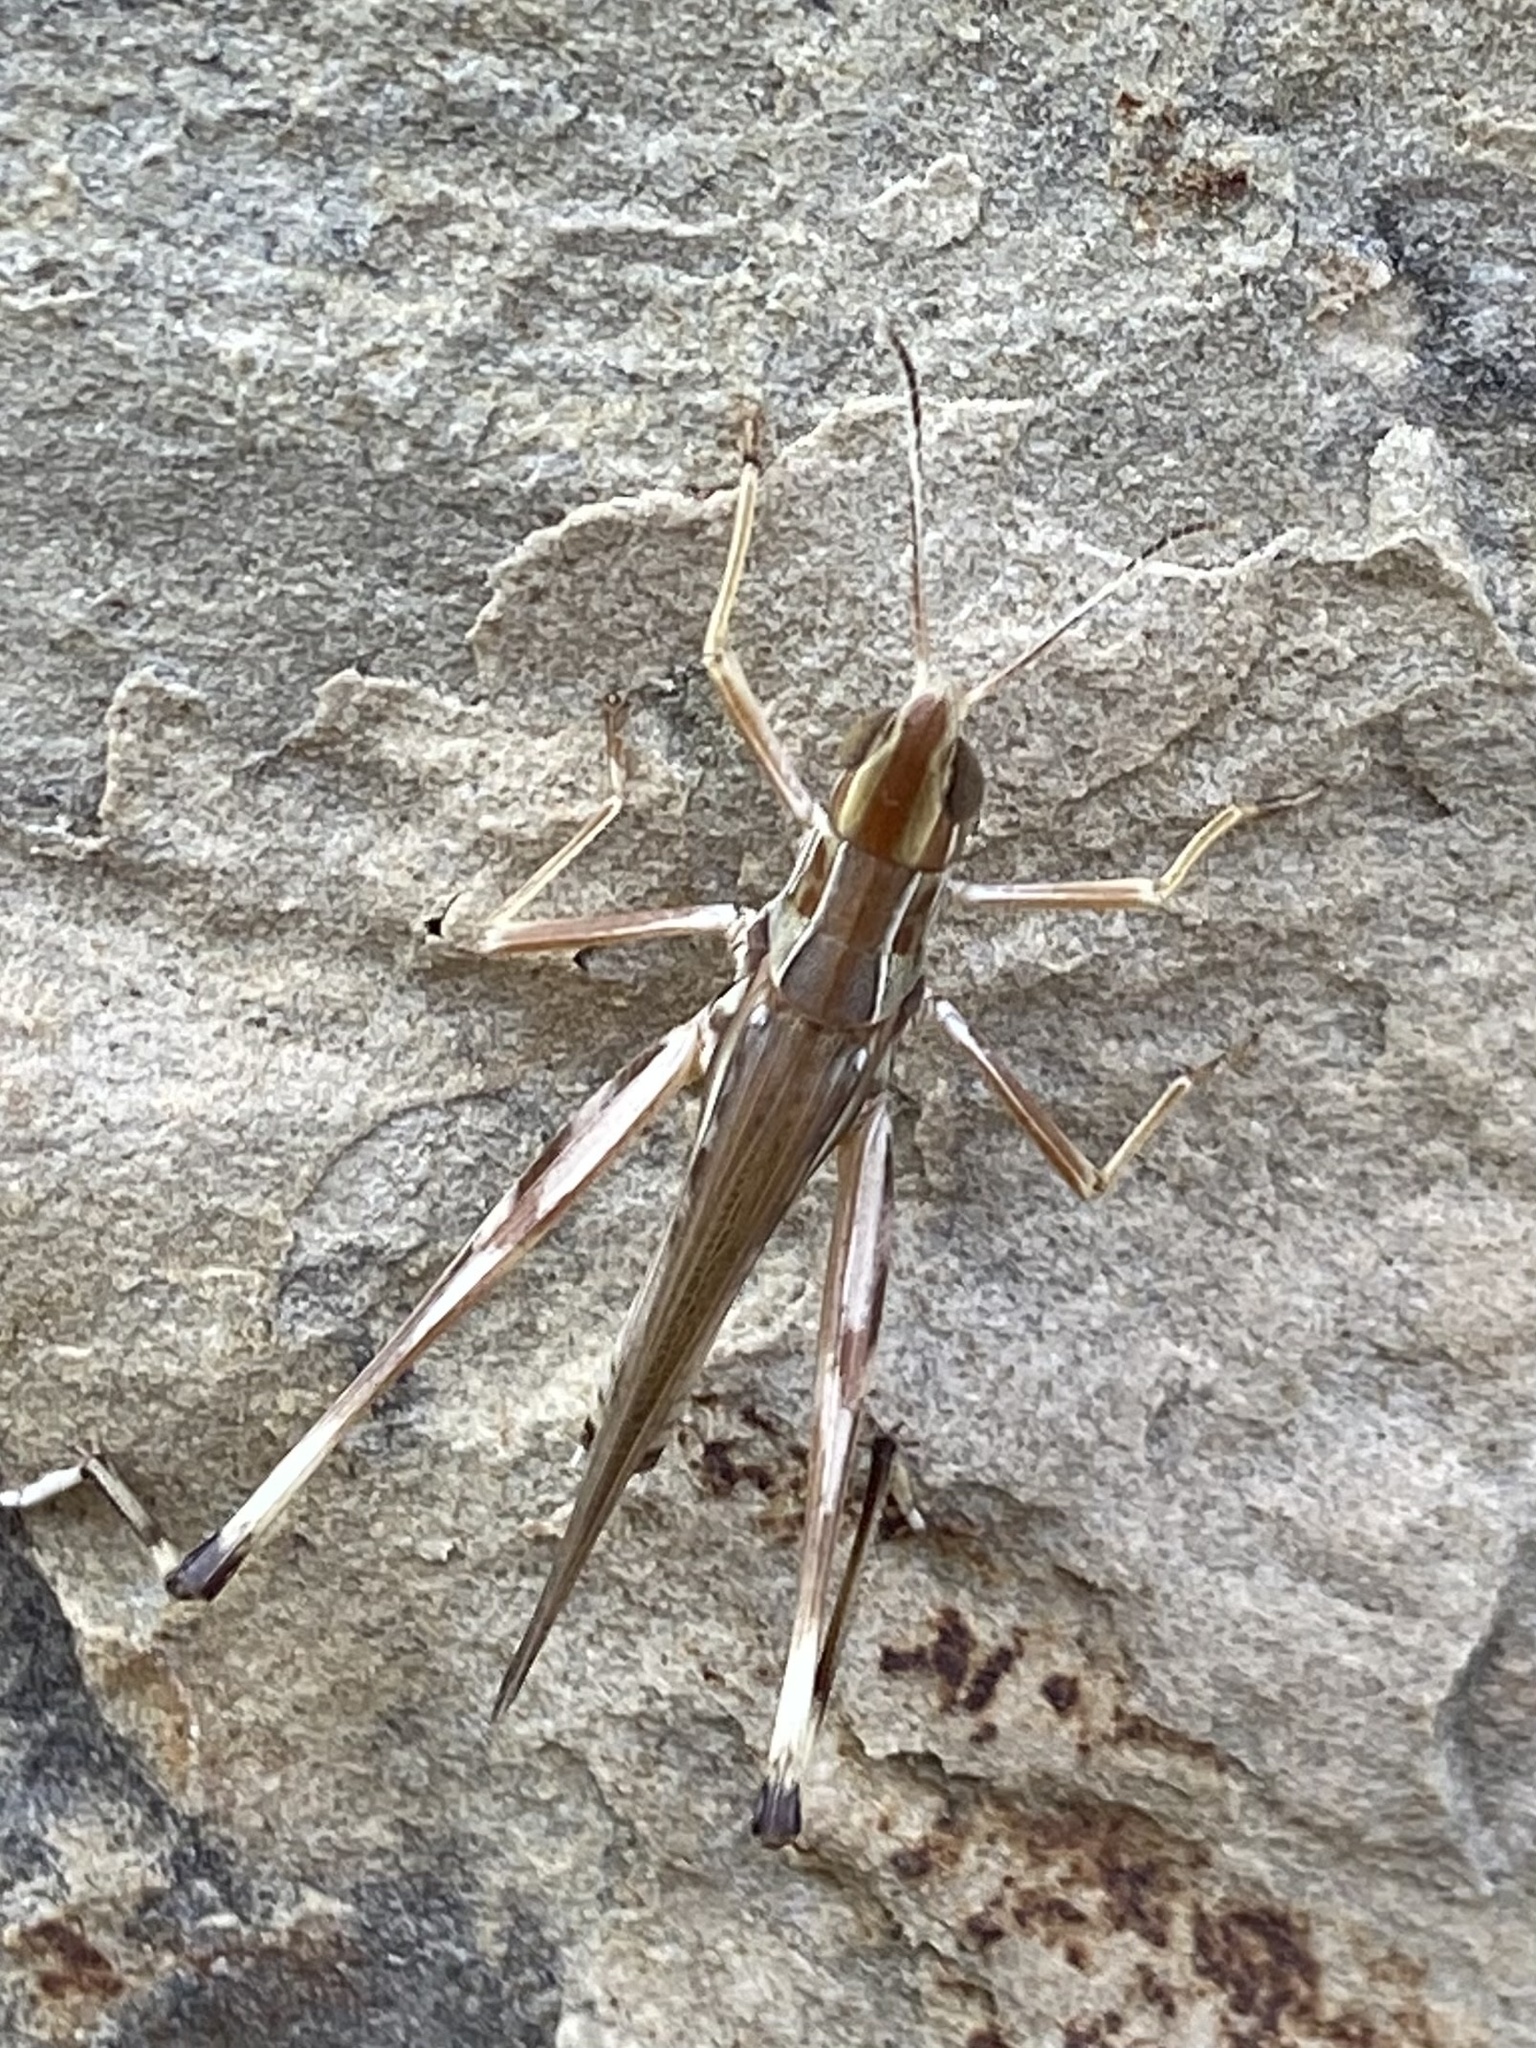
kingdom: Animalia
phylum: Arthropoda
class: Insecta
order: Orthoptera
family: Acrididae
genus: Syrbula
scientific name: Syrbula admirabilis
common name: Handsome grasshopper
